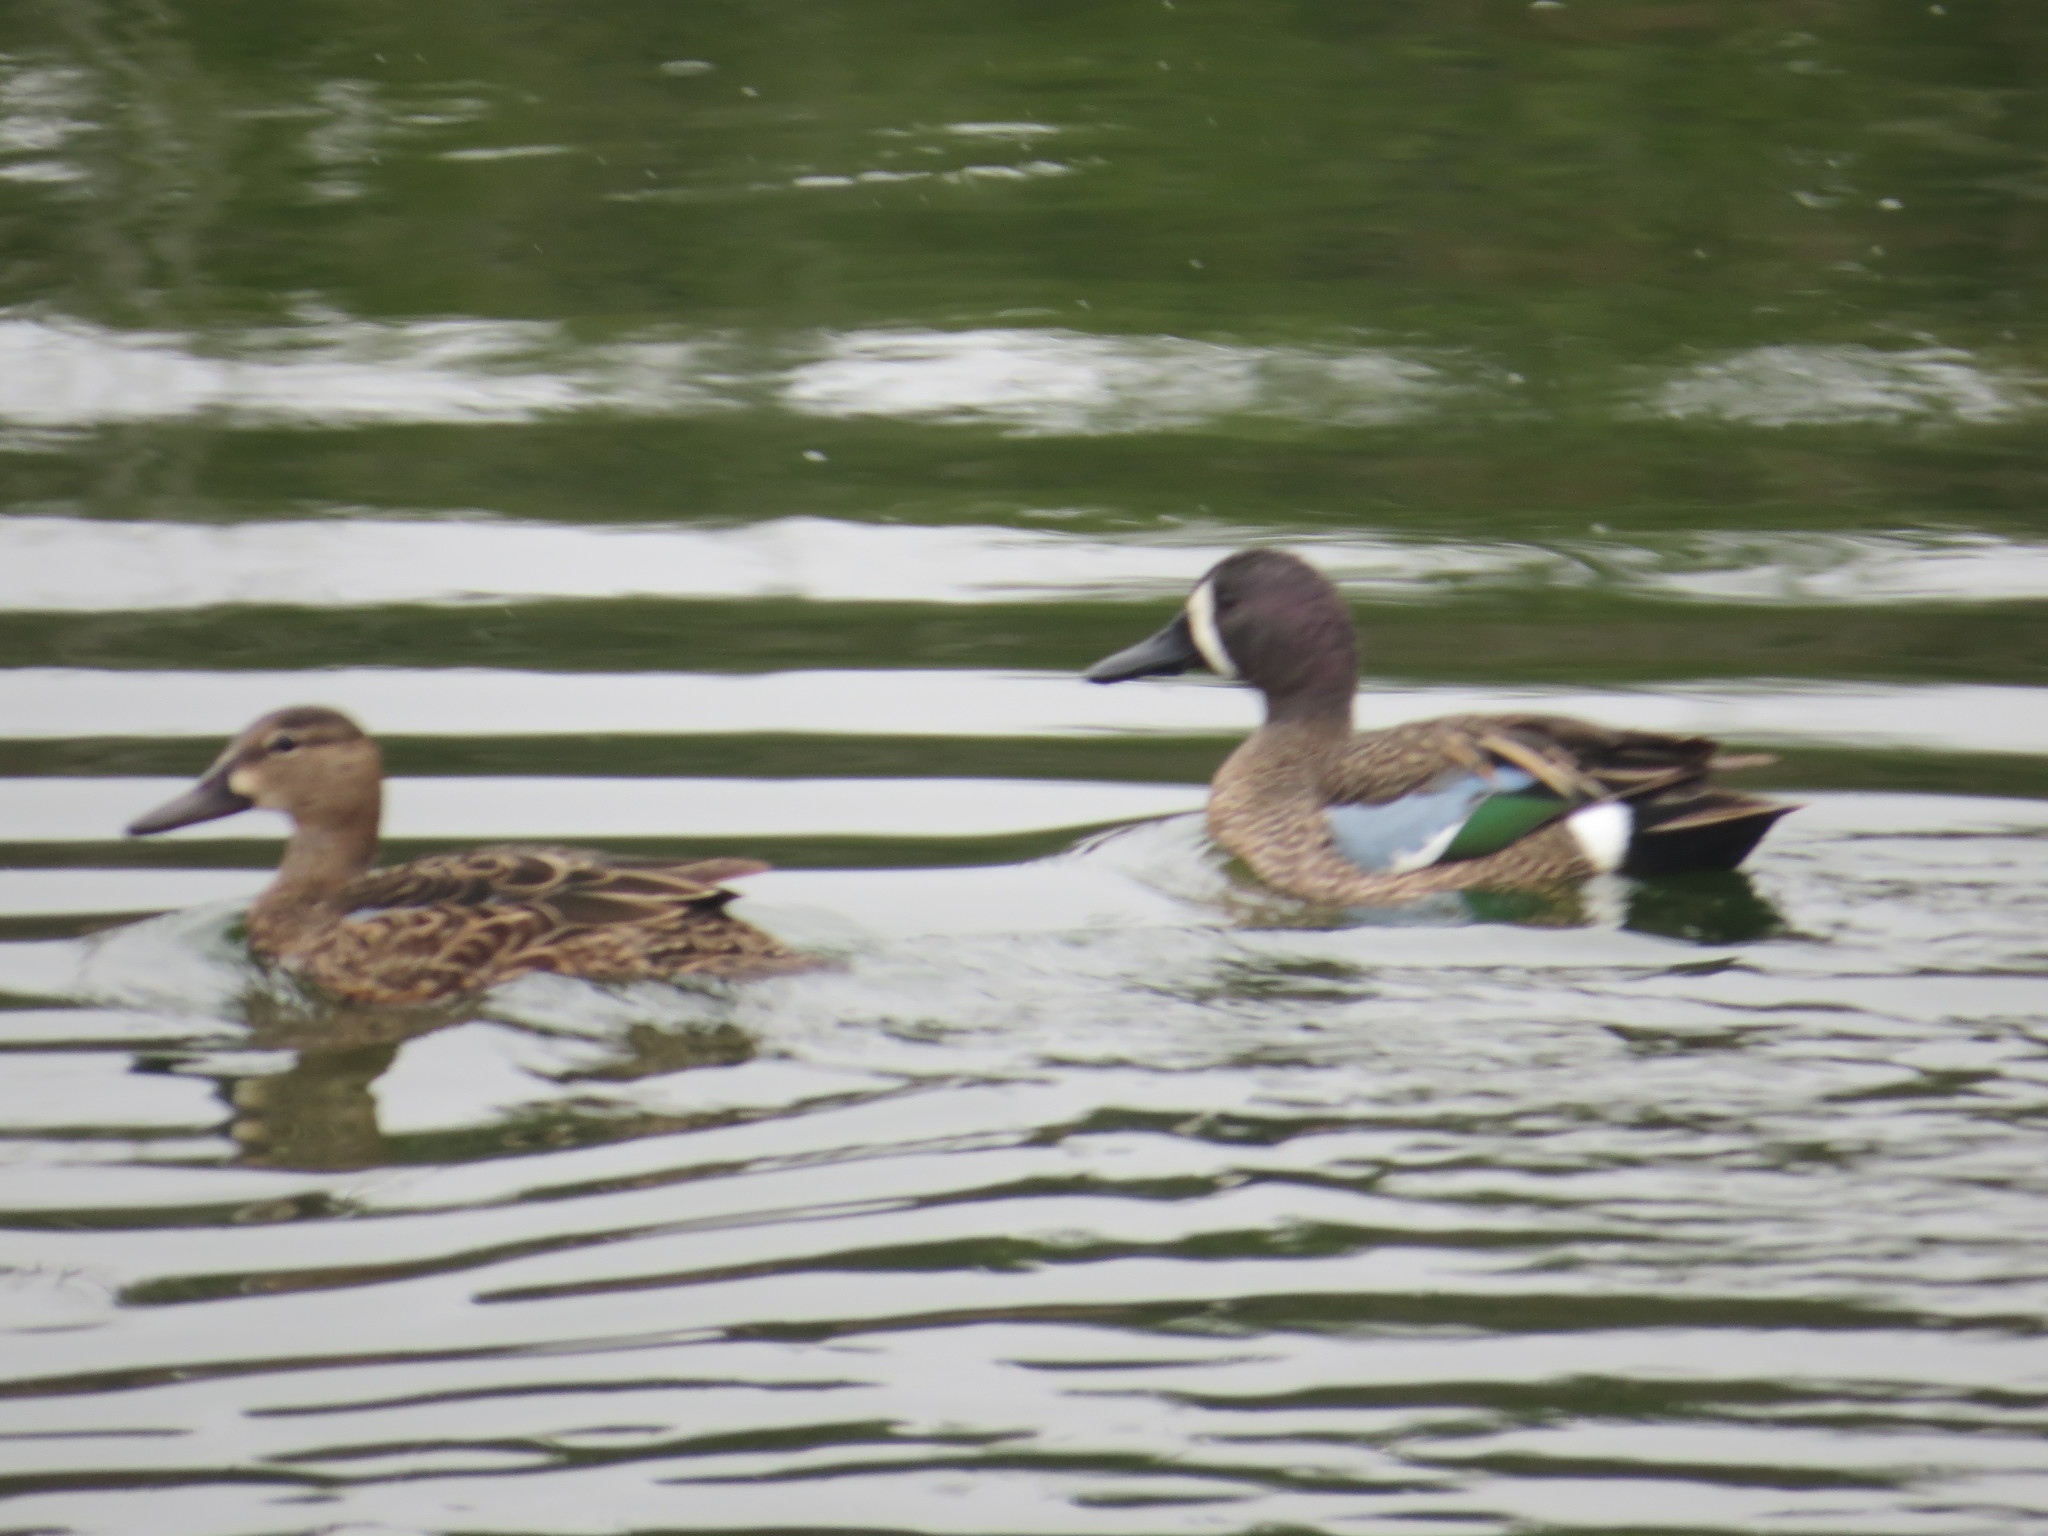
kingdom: Animalia
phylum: Chordata
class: Aves
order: Anseriformes
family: Anatidae
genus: Spatula
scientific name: Spatula discors
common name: Blue-winged teal
